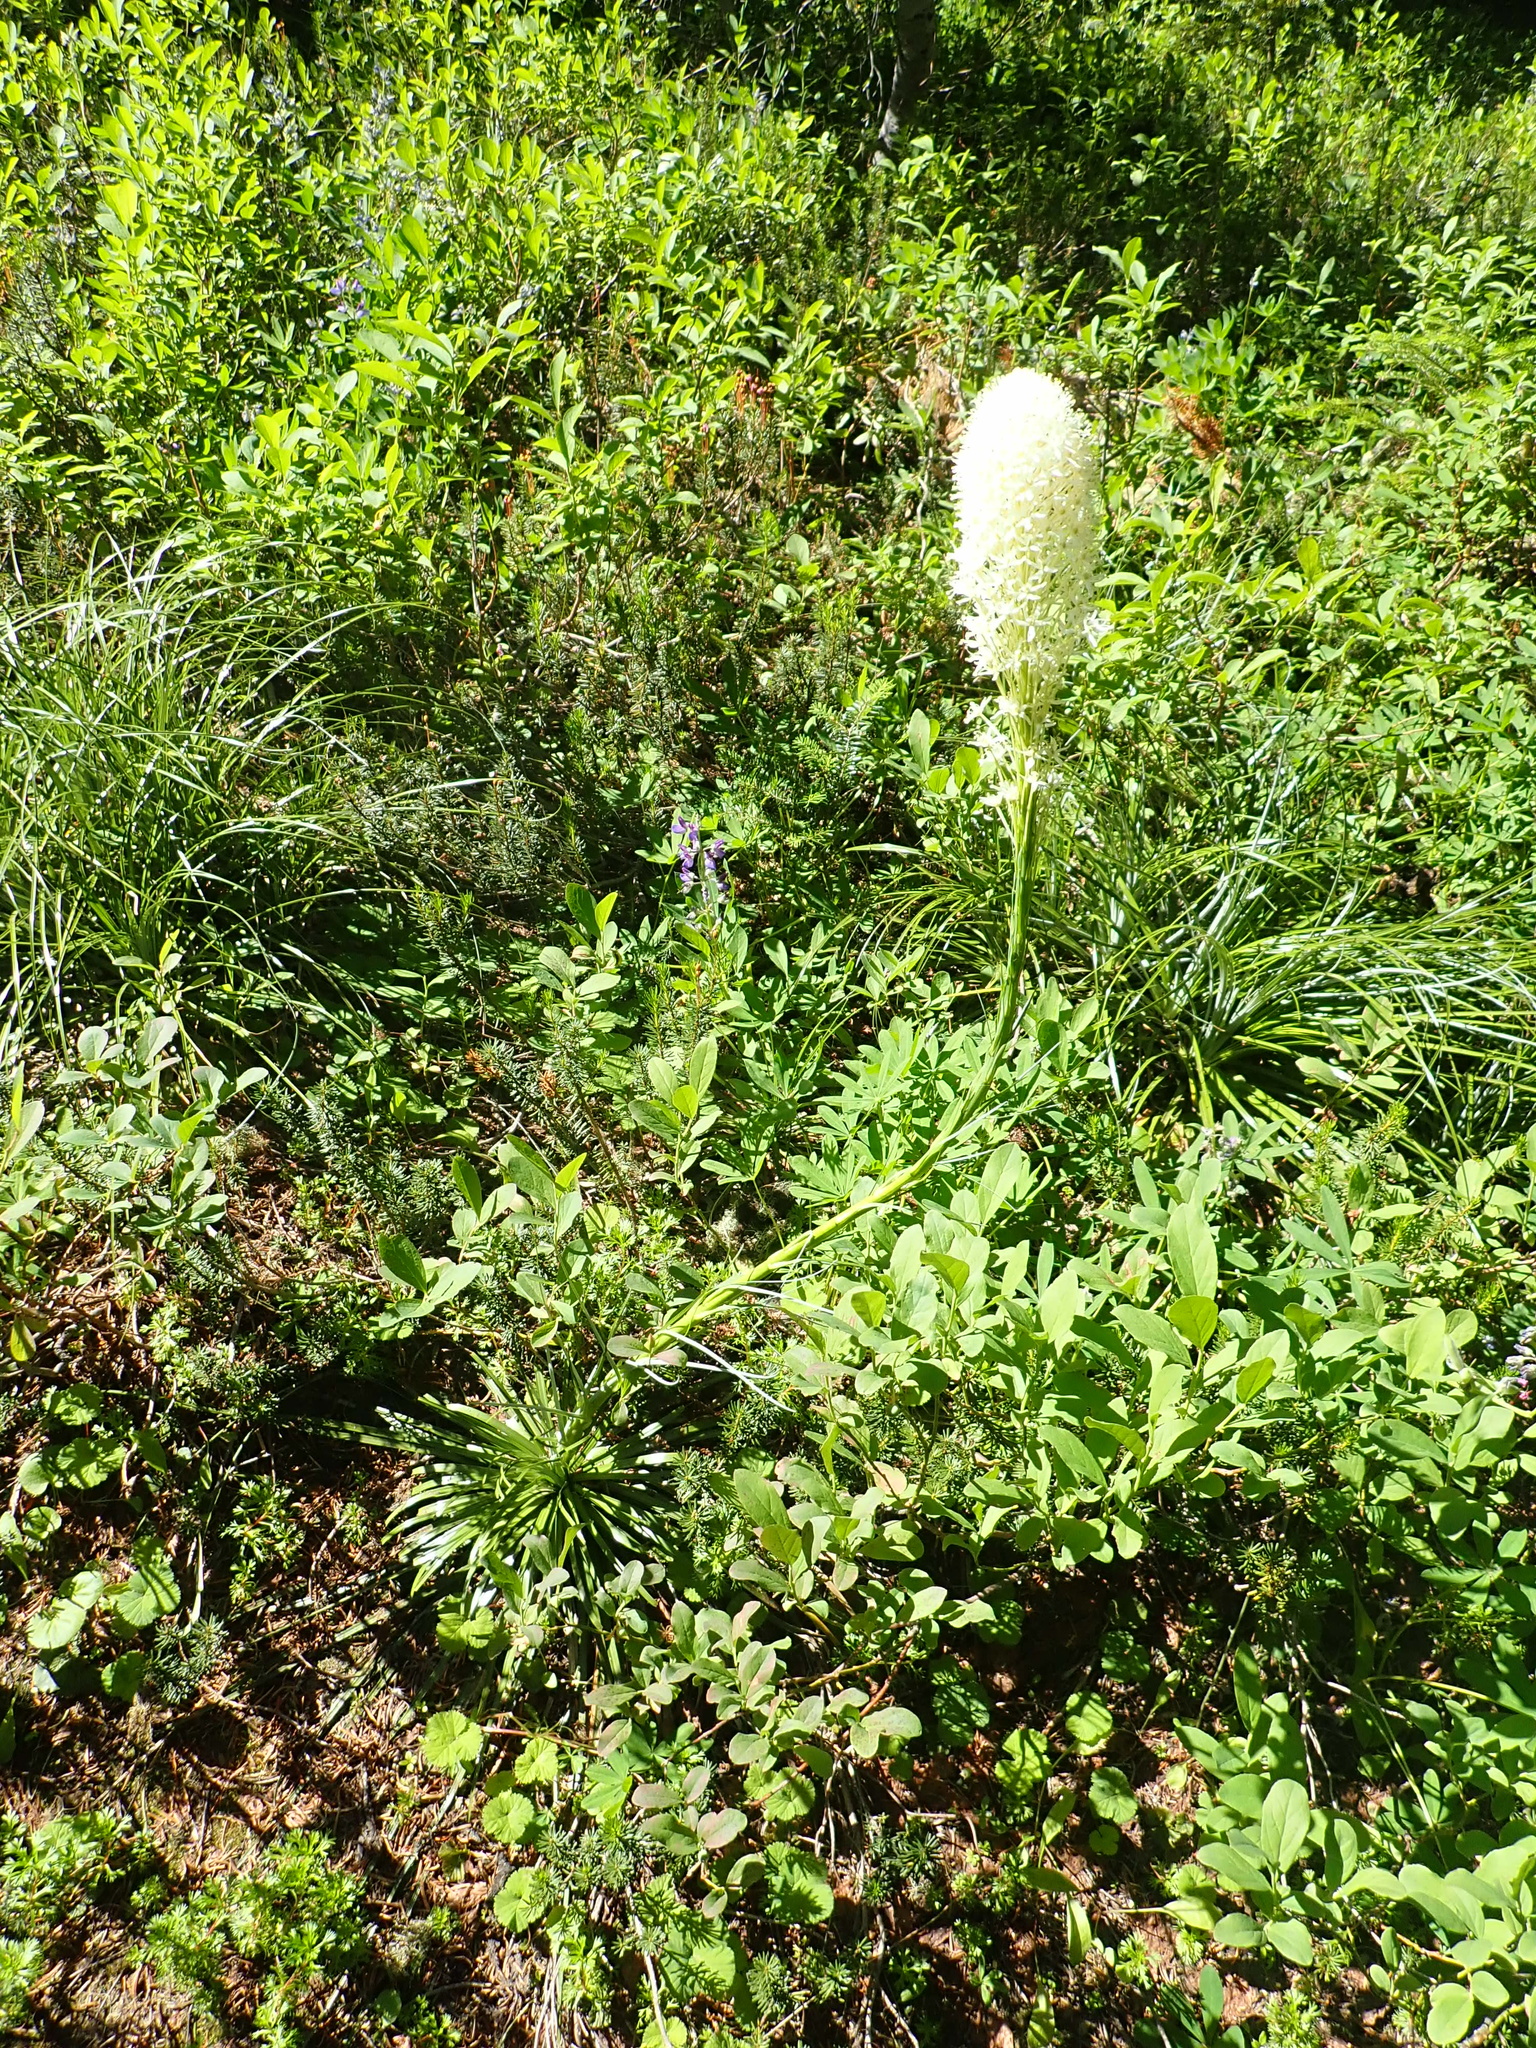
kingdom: Plantae
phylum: Tracheophyta
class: Liliopsida
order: Liliales
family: Melanthiaceae
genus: Xerophyllum
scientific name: Xerophyllum tenax
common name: Bear-grass
